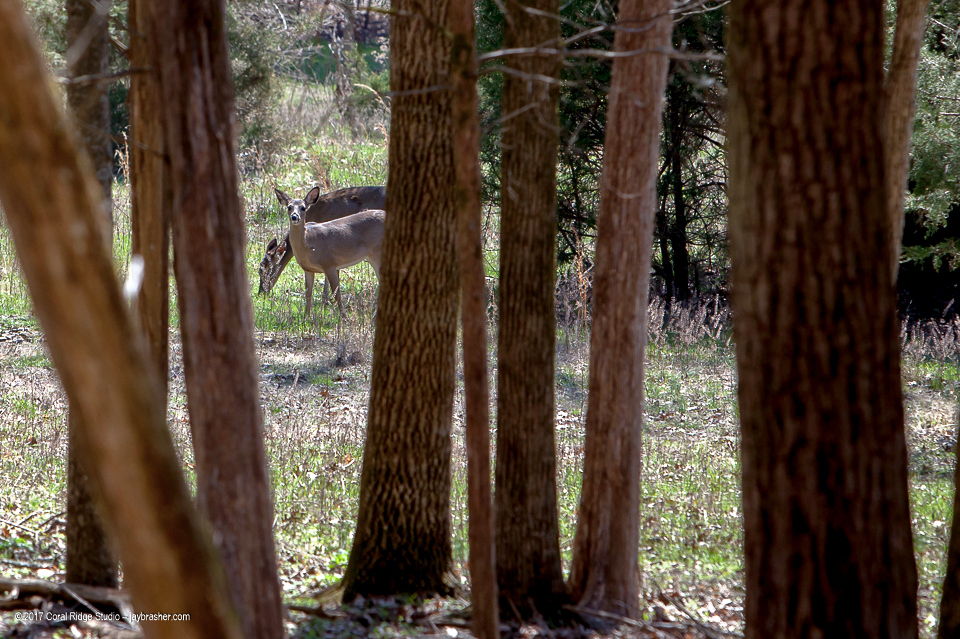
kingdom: Animalia
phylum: Chordata
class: Mammalia
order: Artiodactyla
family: Cervidae
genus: Odocoileus
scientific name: Odocoileus virginianus
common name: White-tailed deer
